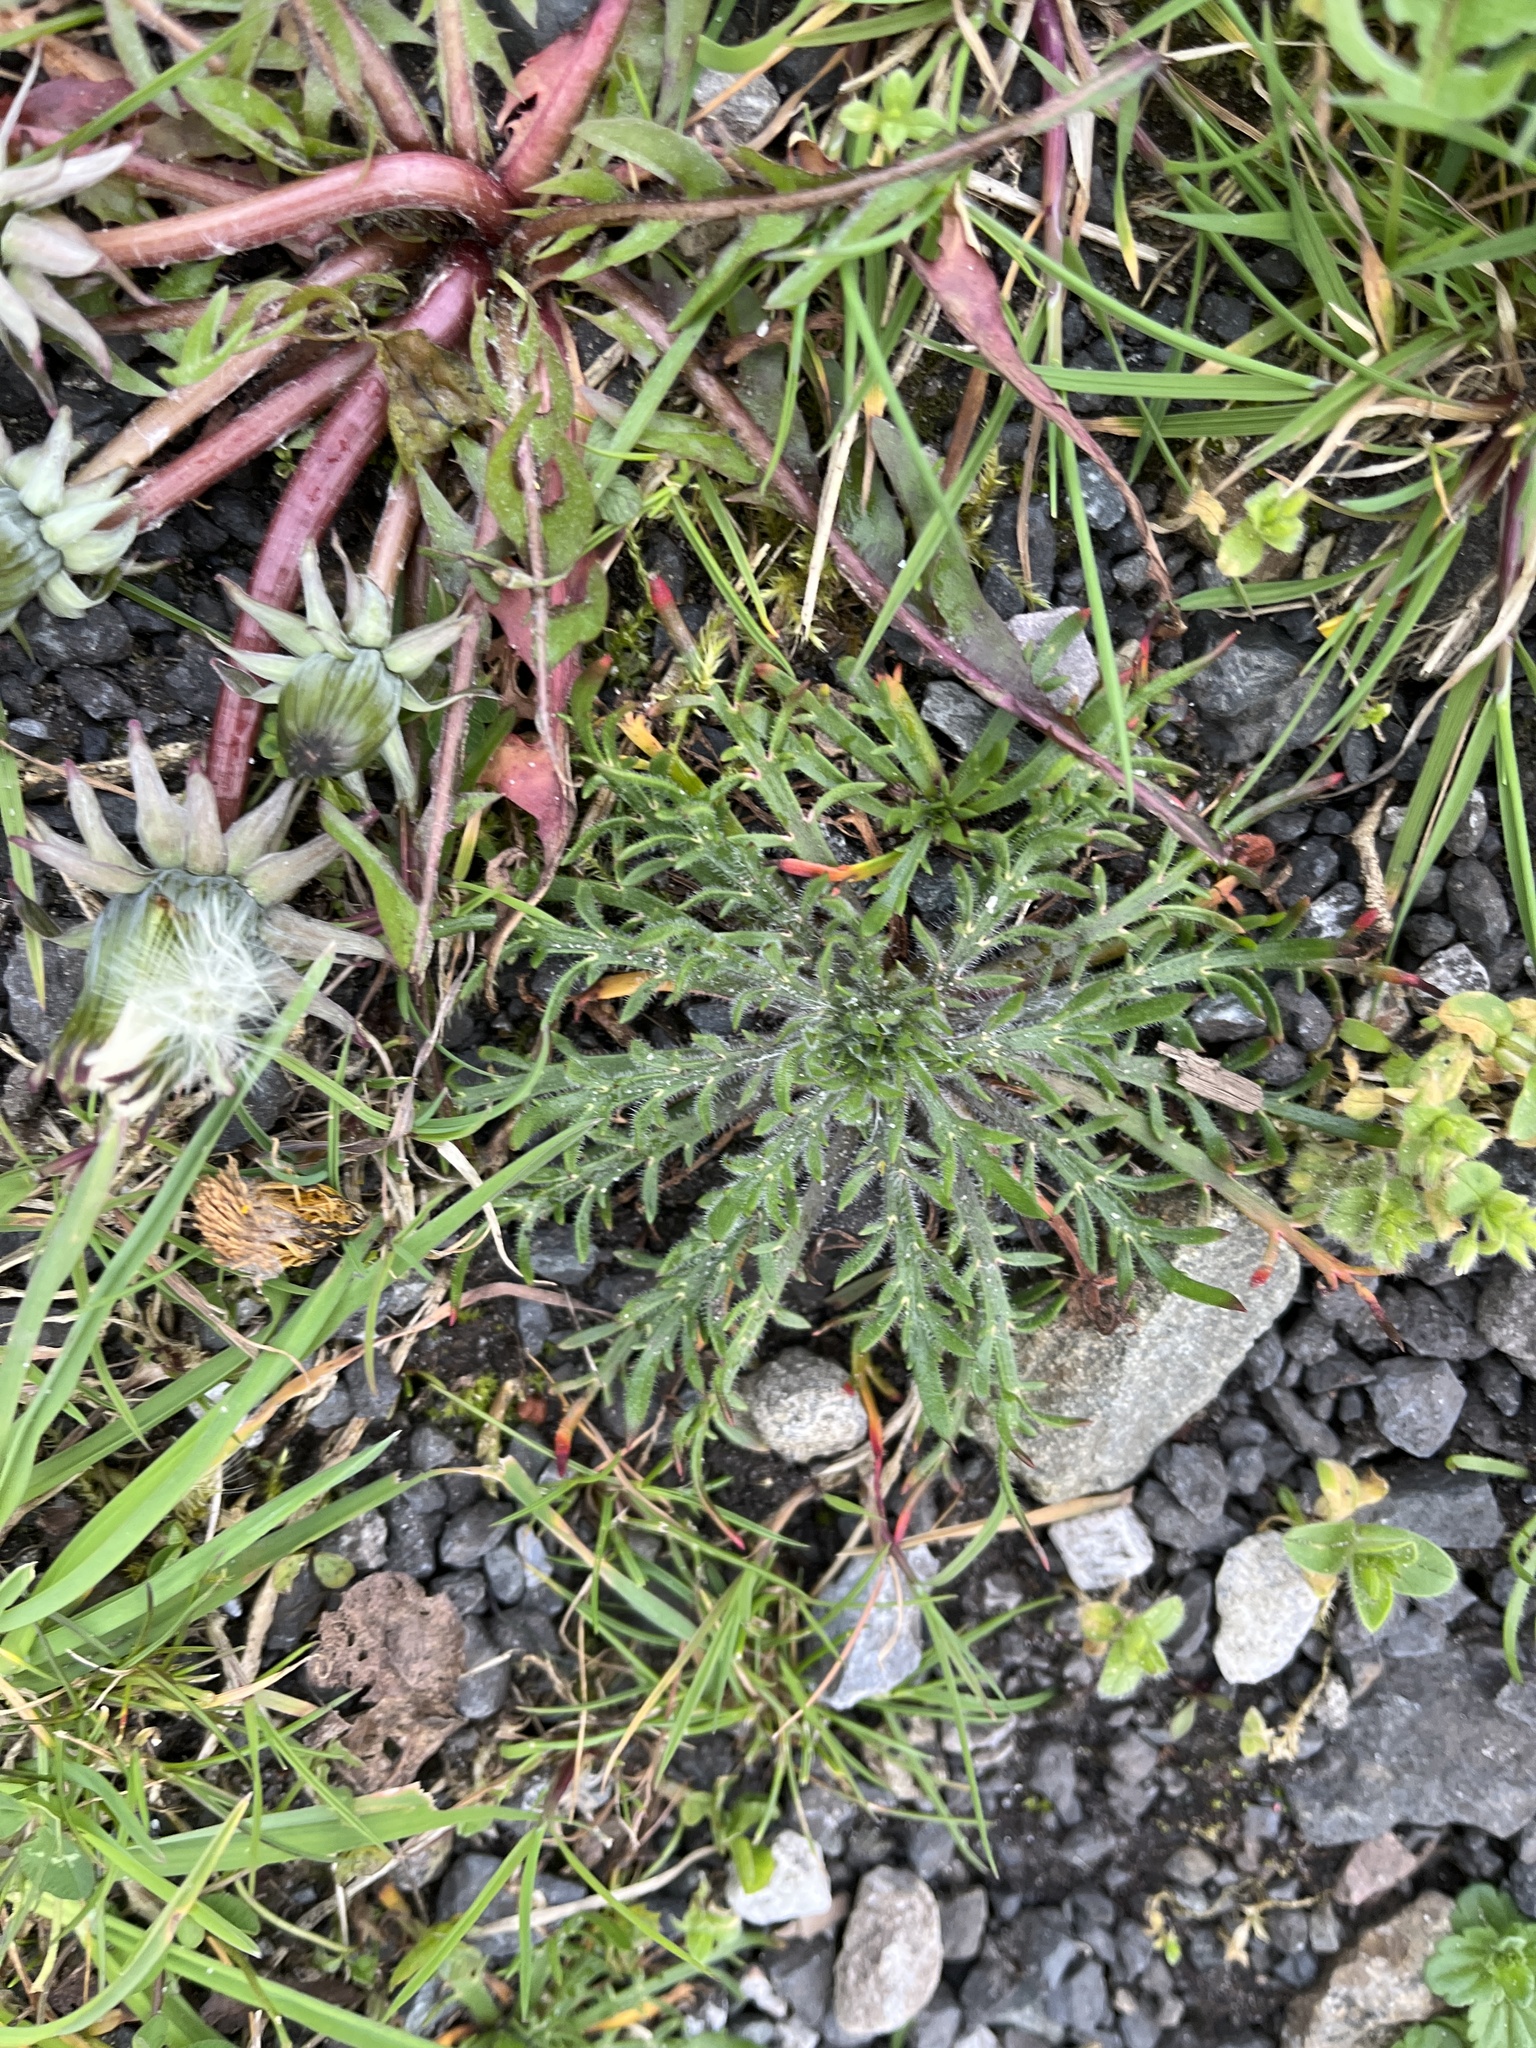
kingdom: Plantae
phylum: Tracheophyta
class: Magnoliopsida
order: Lamiales
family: Plantaginaceae
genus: Plantago
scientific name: Plantago coronopus
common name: Buck's-horn plantain
